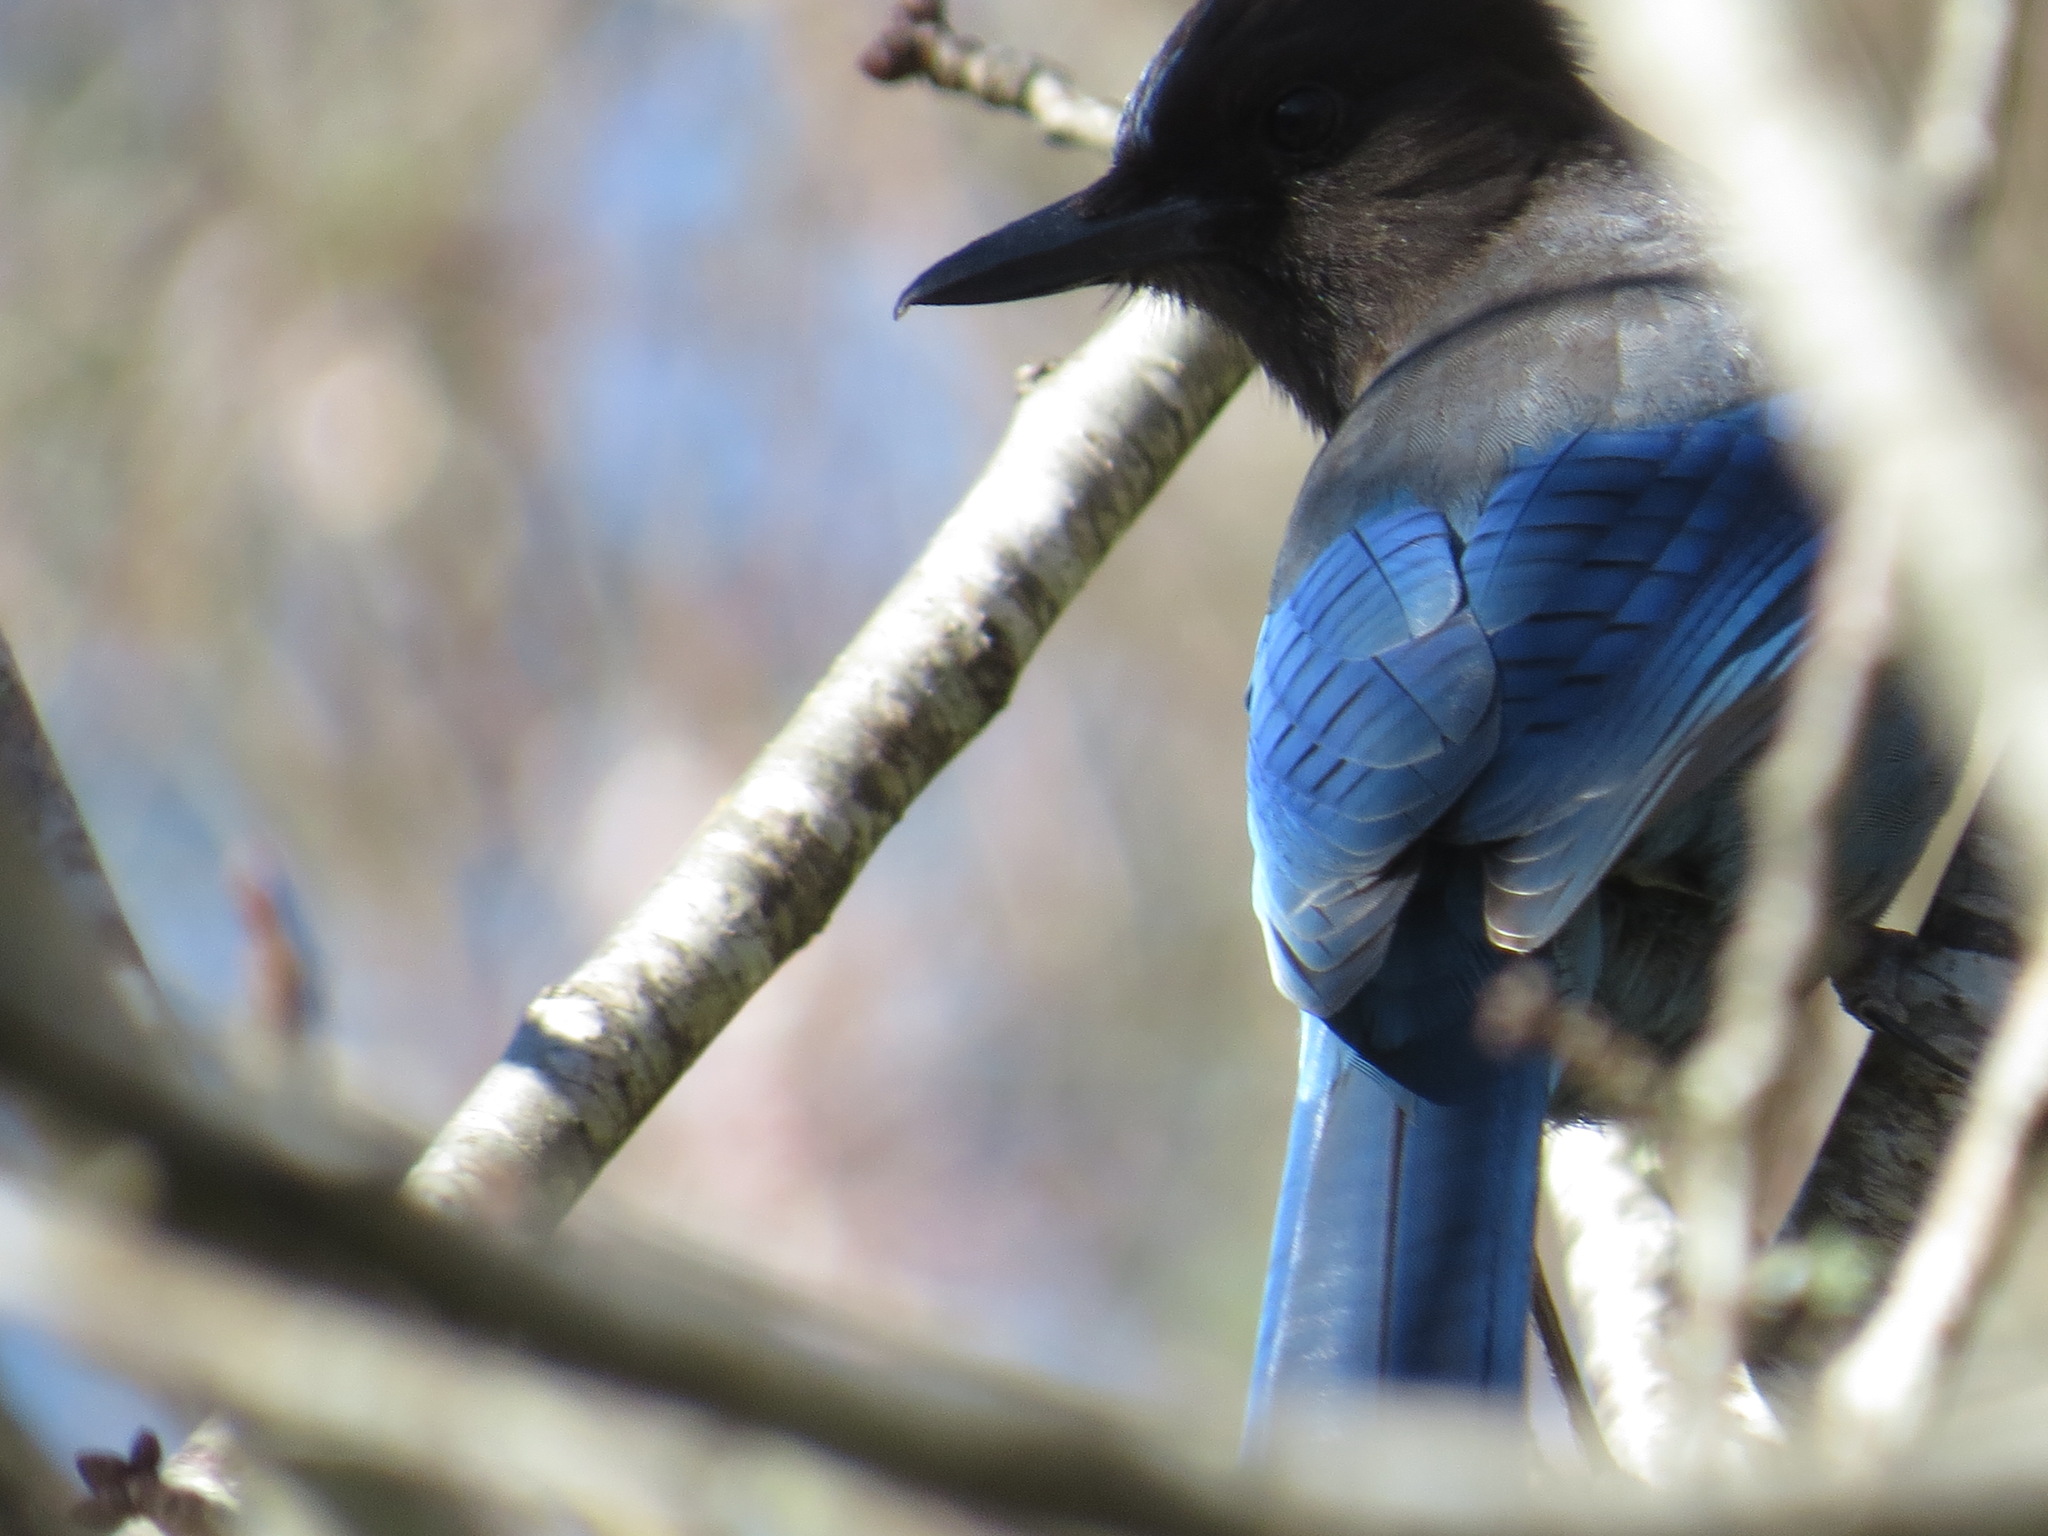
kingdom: Animalia
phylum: Chordata
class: Aves
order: Passeriformes
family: Corvidae
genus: Cyanocitta
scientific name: Cyanocitta stelleri
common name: Steller's jay
